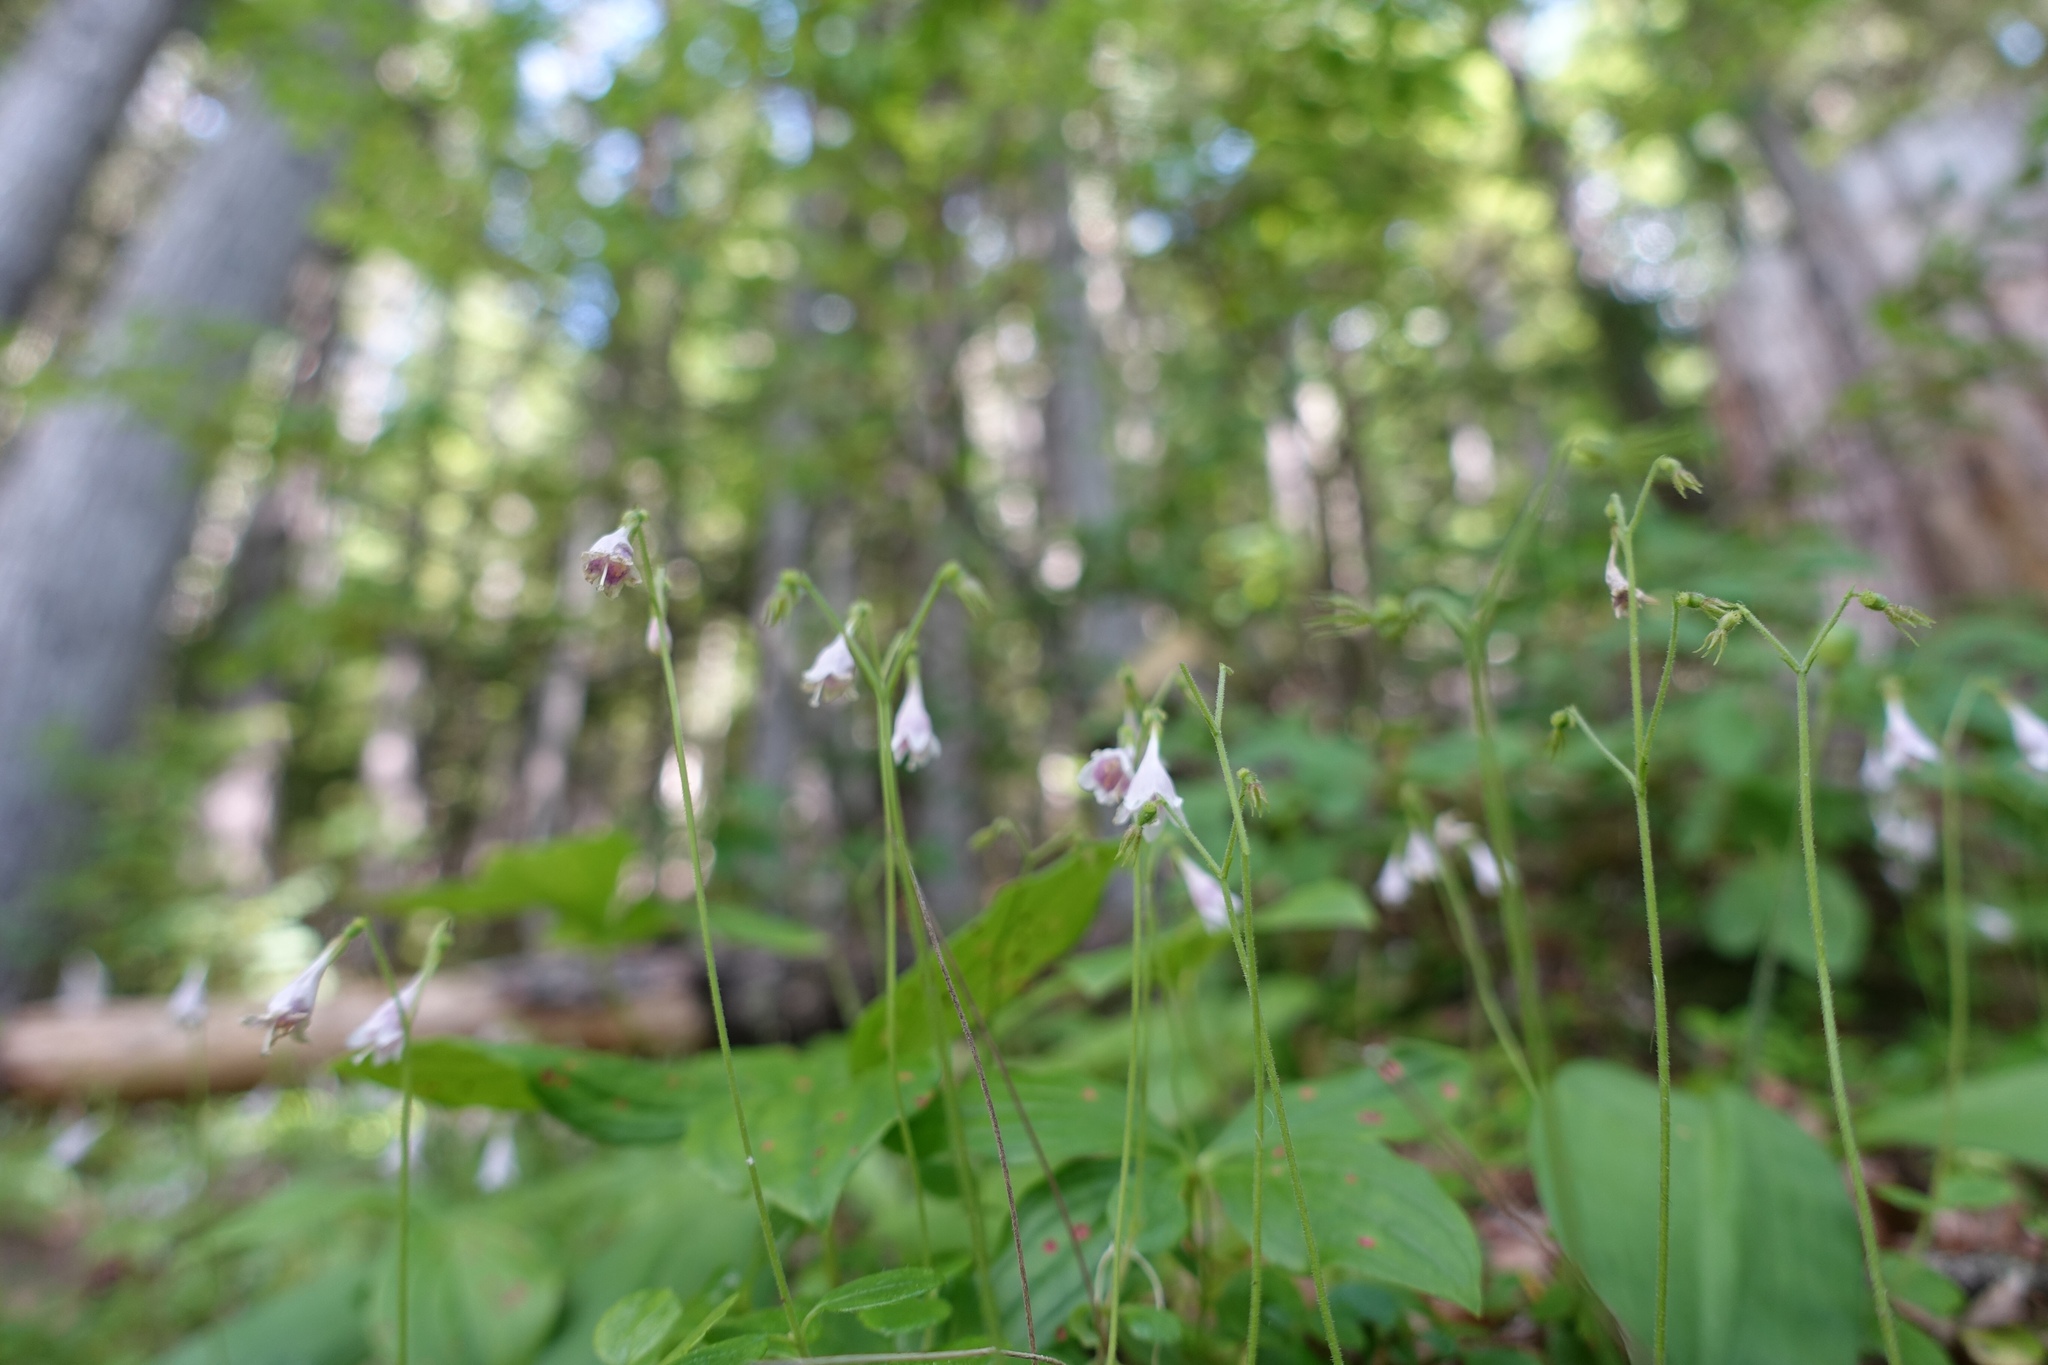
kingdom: Plantae
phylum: Tracheophyta
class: Magnoliopsida
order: Dipsacales
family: Caprifoliaceae
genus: Linnaea
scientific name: Linnaea borealis
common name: Twinflower
